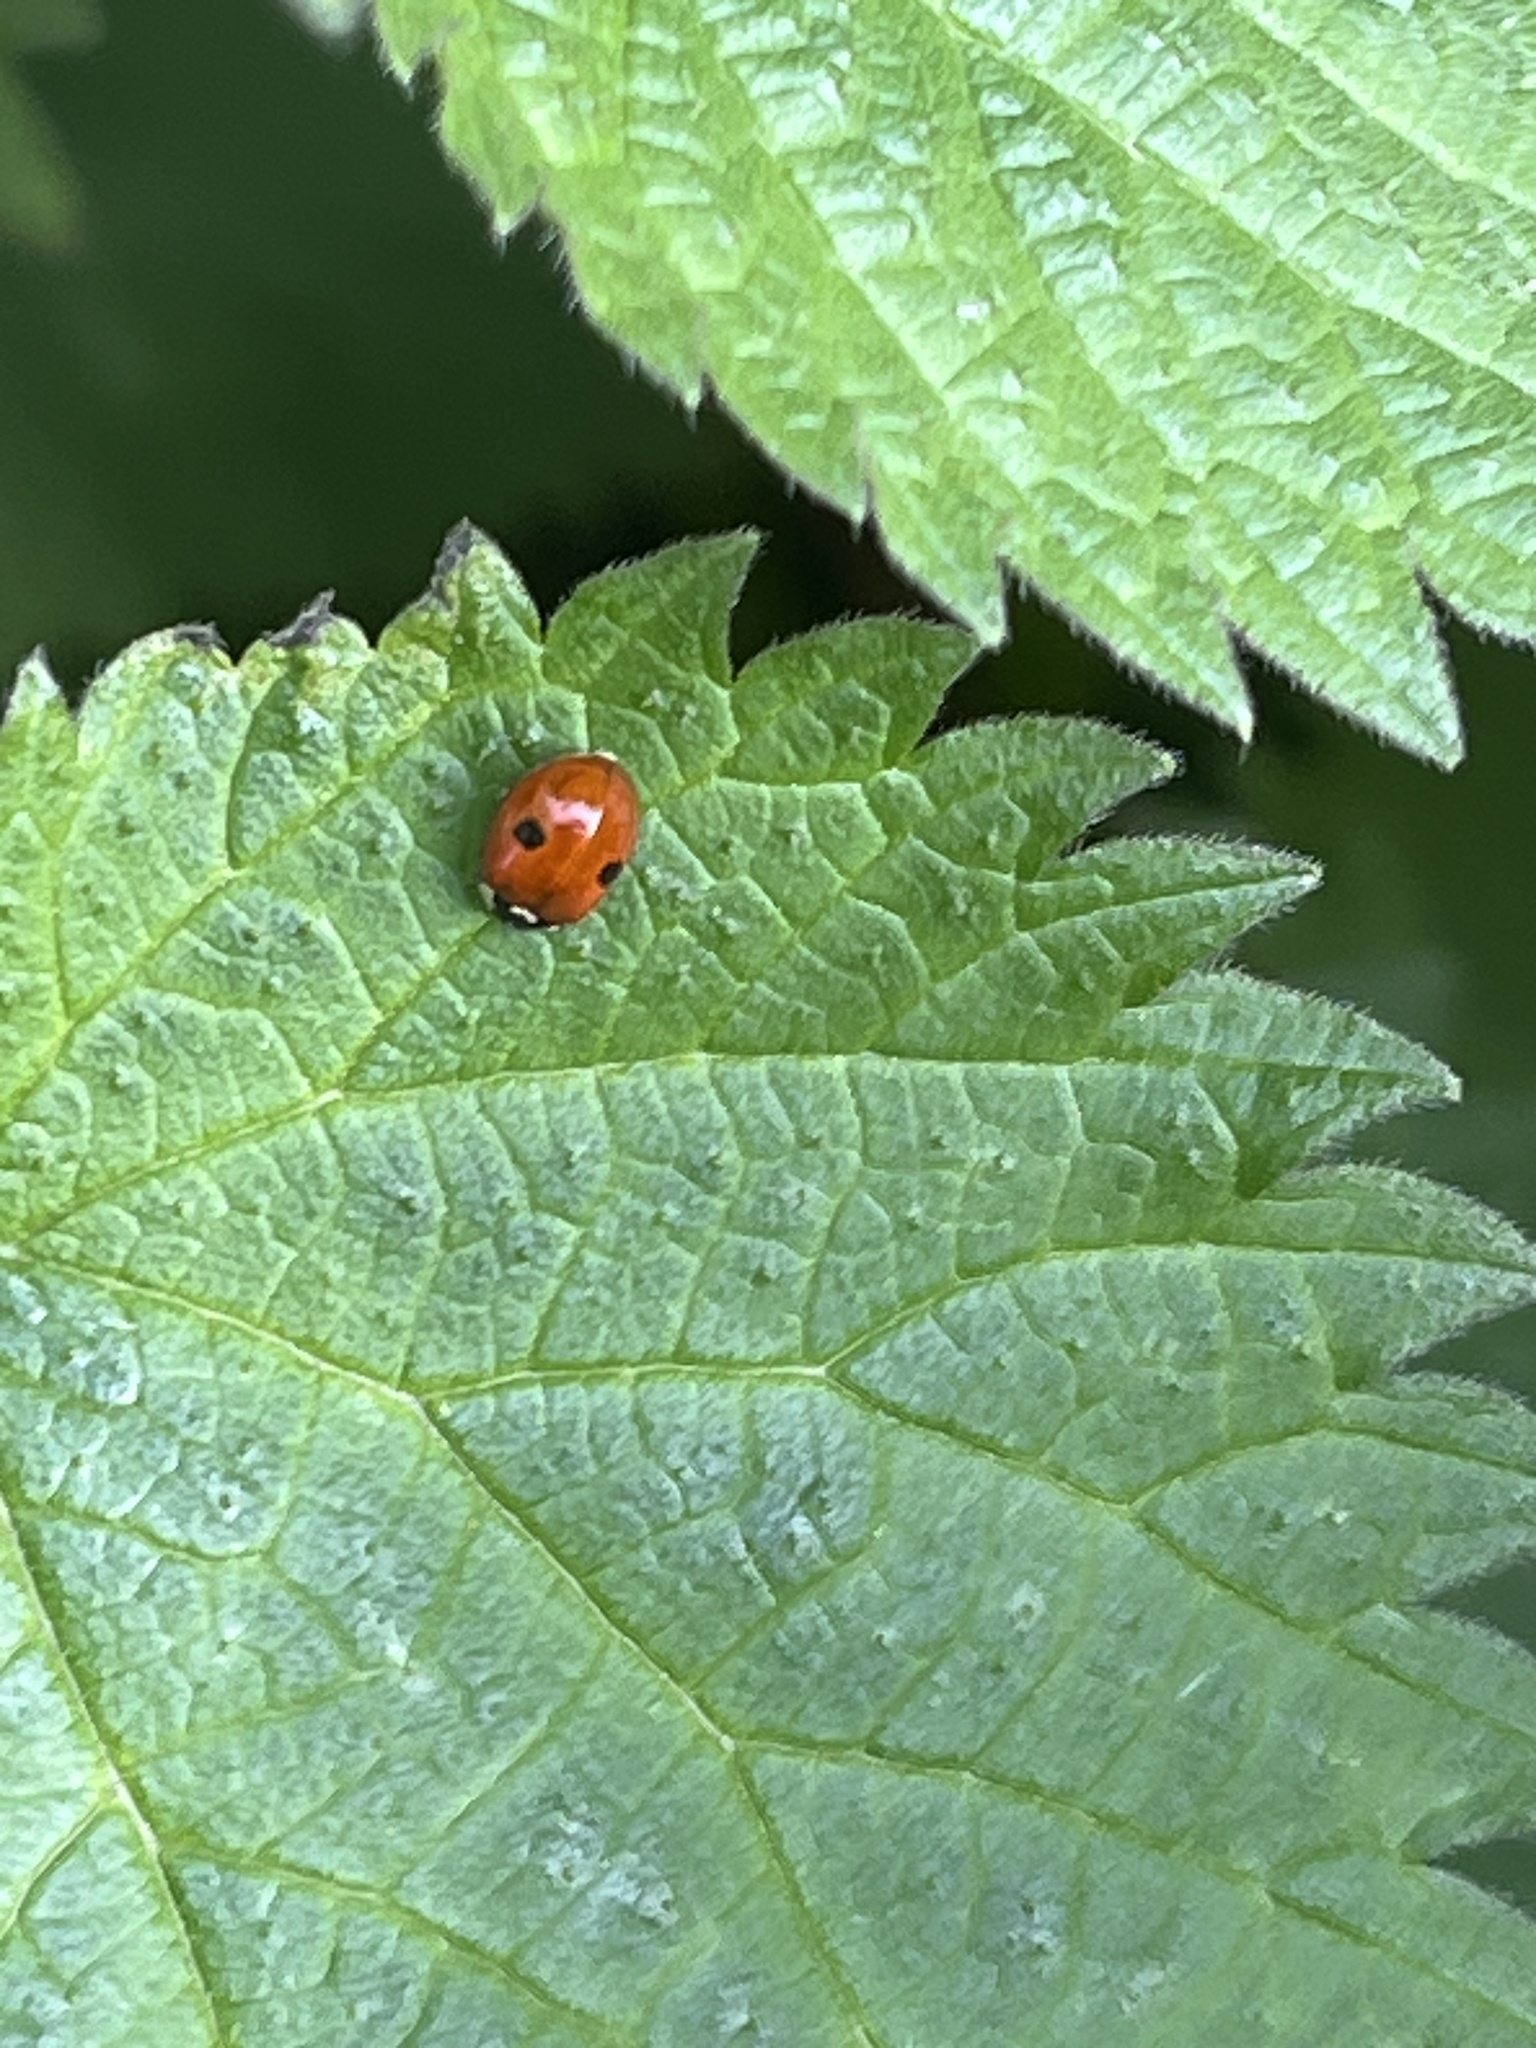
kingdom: Animalia
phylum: Arthropoda
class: Insecta
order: Coleoptera
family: Coccinellidae
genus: Adalia
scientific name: Adalia bipunctata
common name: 2-spot ladybird
